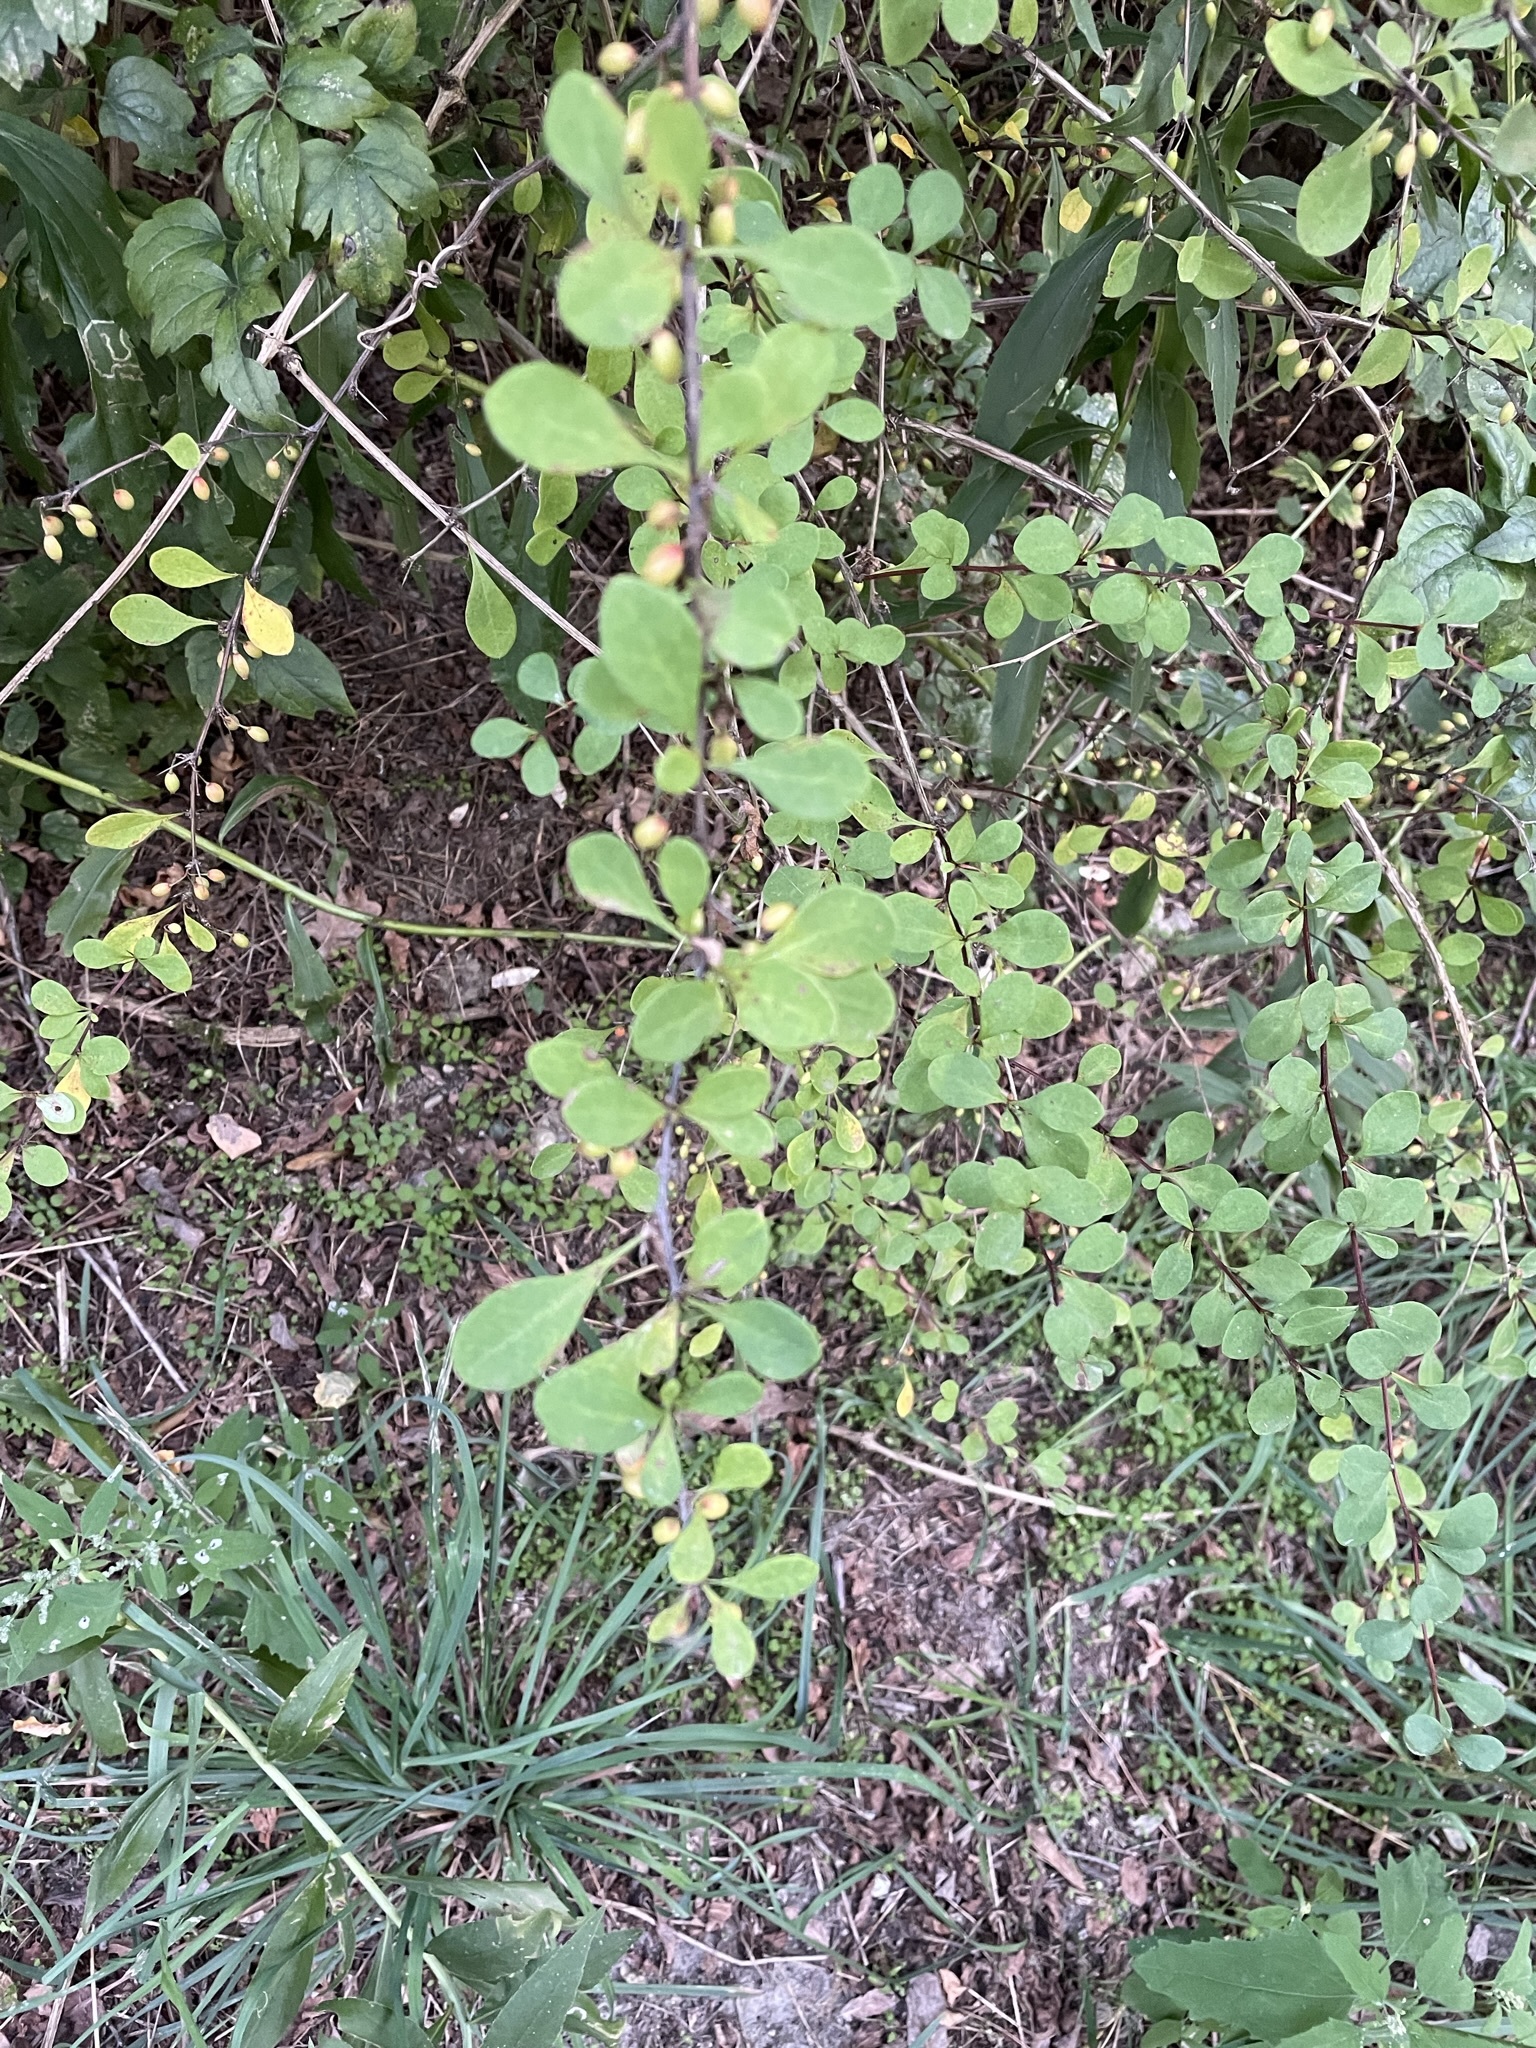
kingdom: Plantae
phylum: Tracheophyta
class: Magnoliopsida
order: Ranunculales
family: Berberidaceae
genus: Berberis
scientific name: Berberis thunbergii
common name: Japanese barberry
